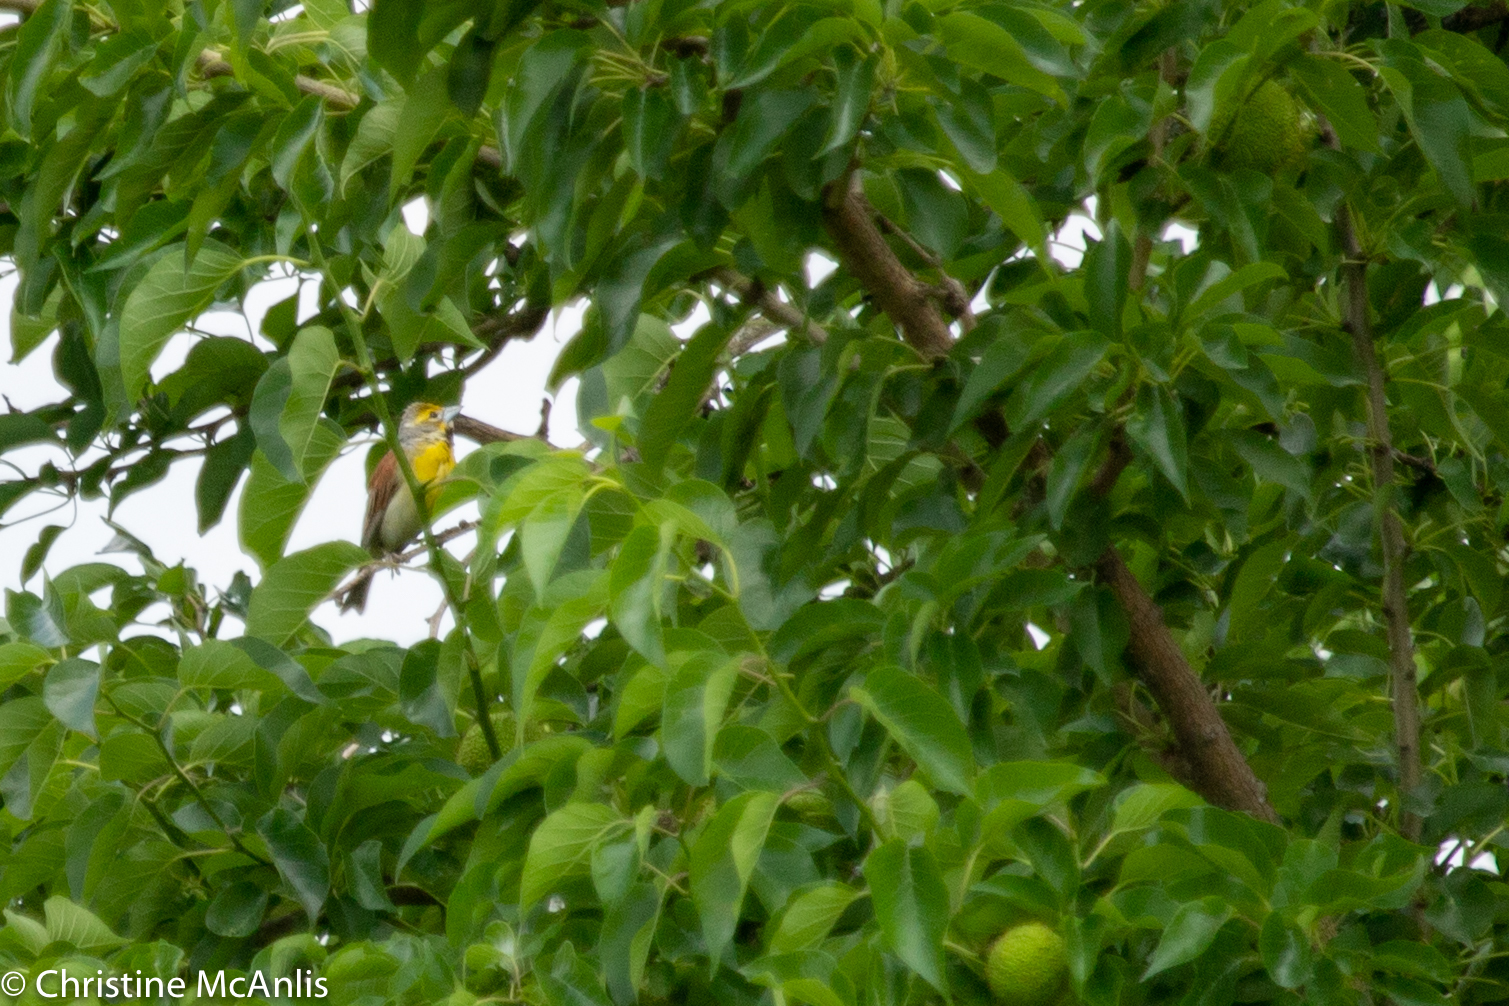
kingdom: Animalia
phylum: Chordata
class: Aves
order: Passeriformes
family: Cardinalidae
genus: Spiza
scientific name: Spiza americana
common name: Dickcissel
